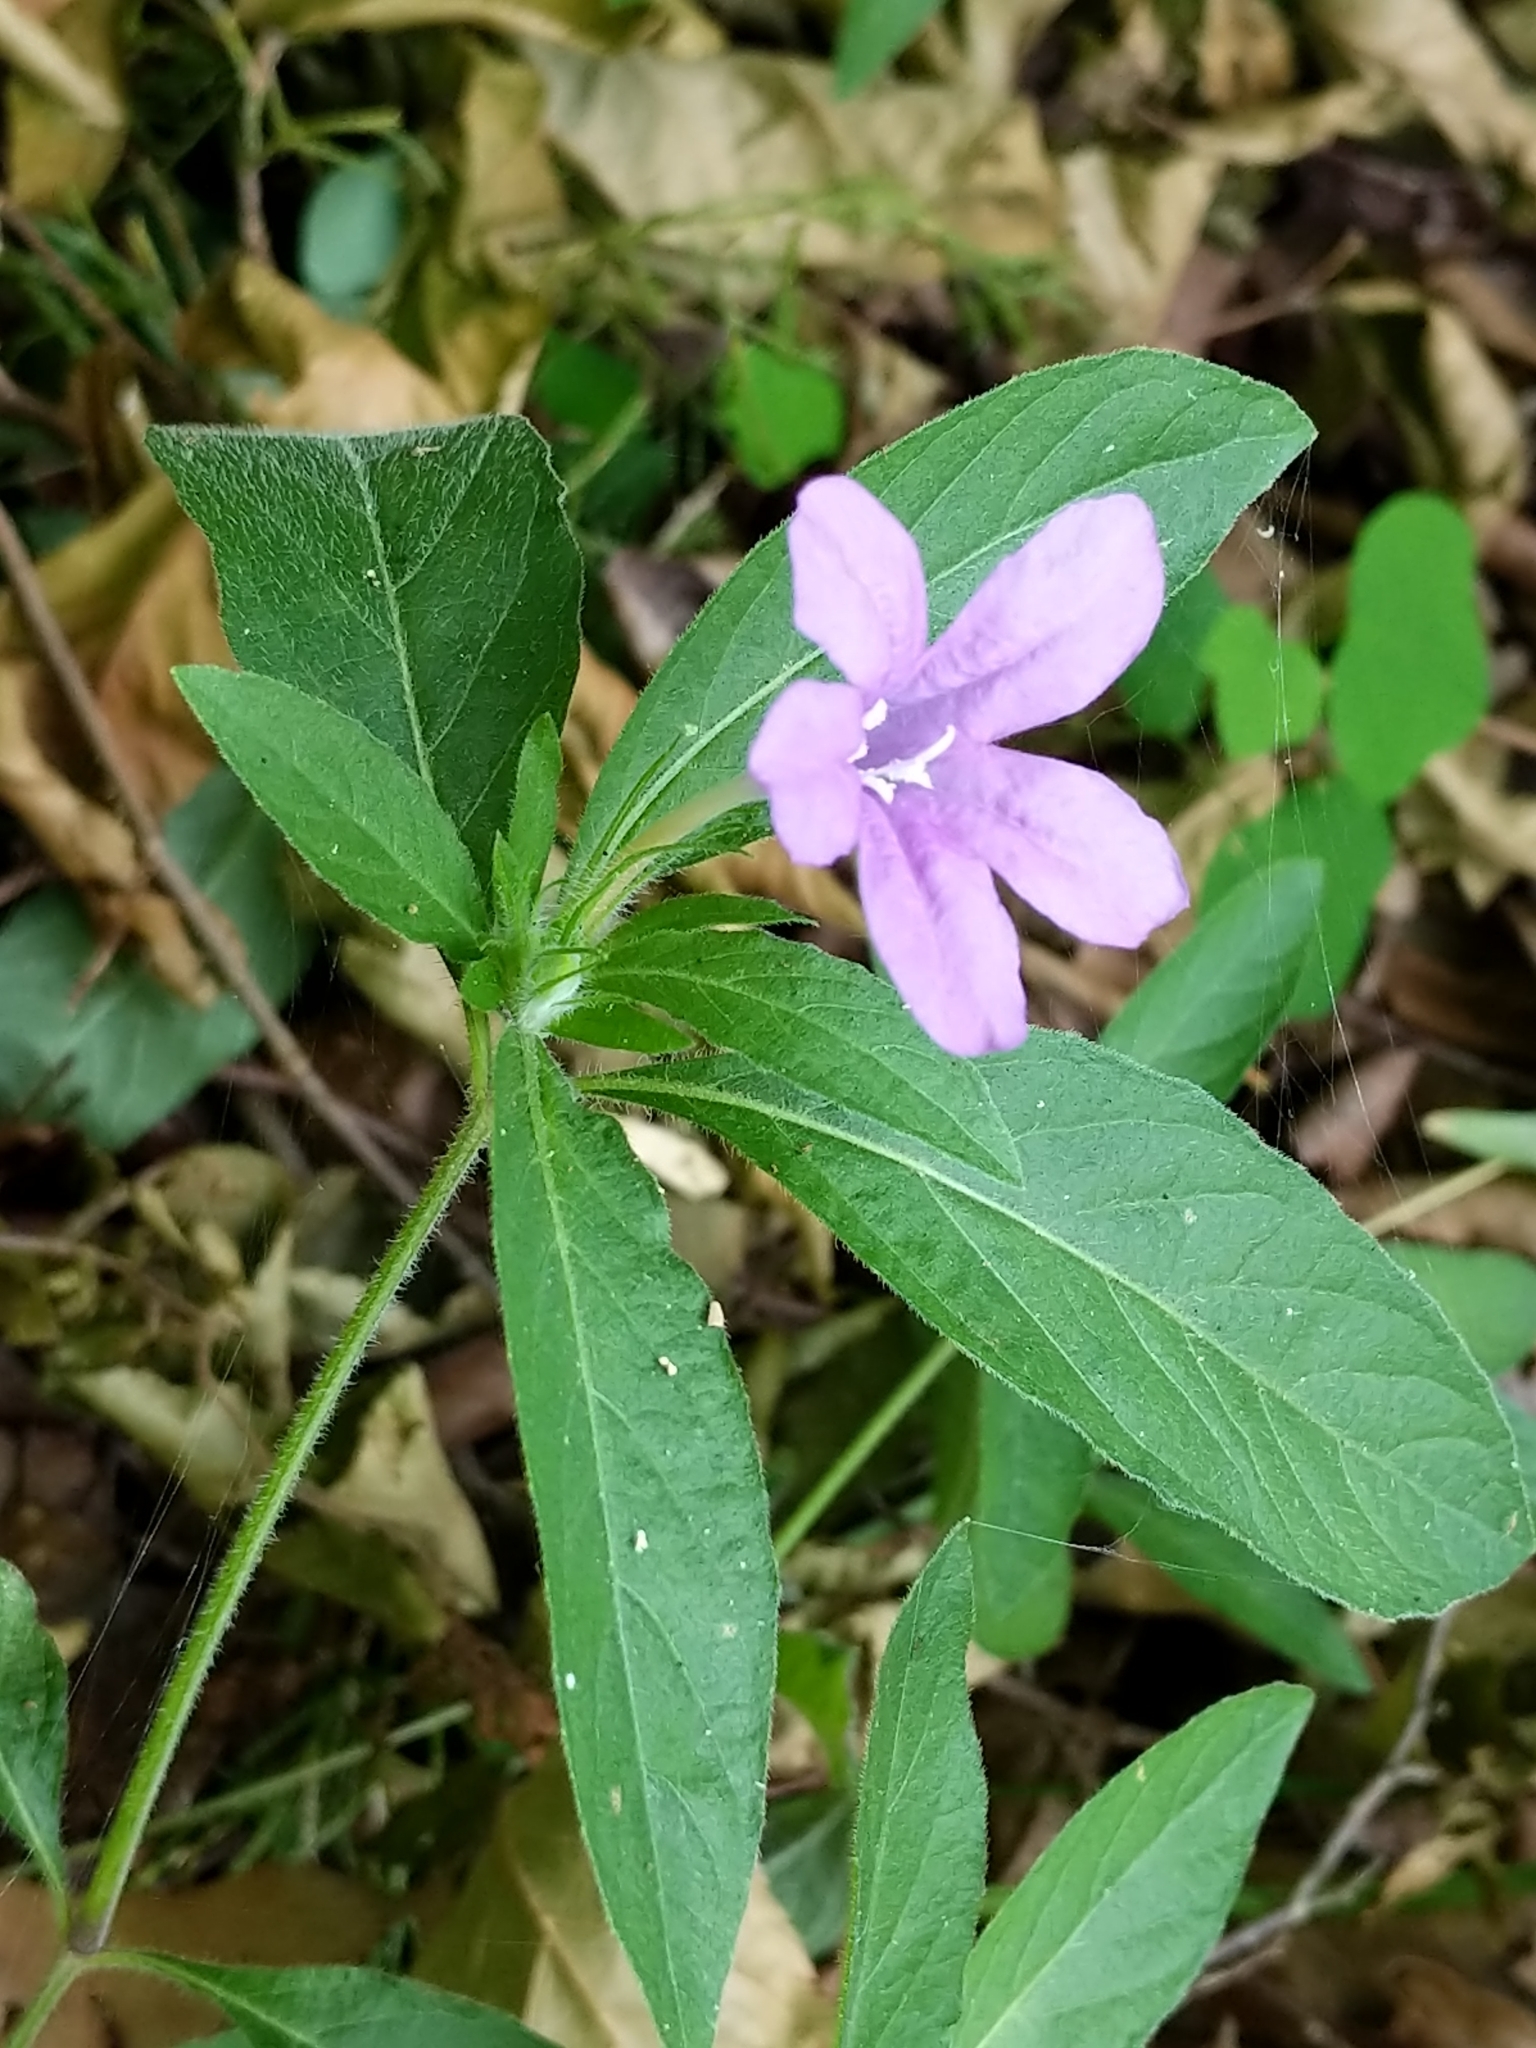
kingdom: Plantae
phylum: Tracheophyta
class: Magnoliopsida
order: Lamiales
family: Acanthaceae
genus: Ruellia
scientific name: Ruellia caroliniensis
